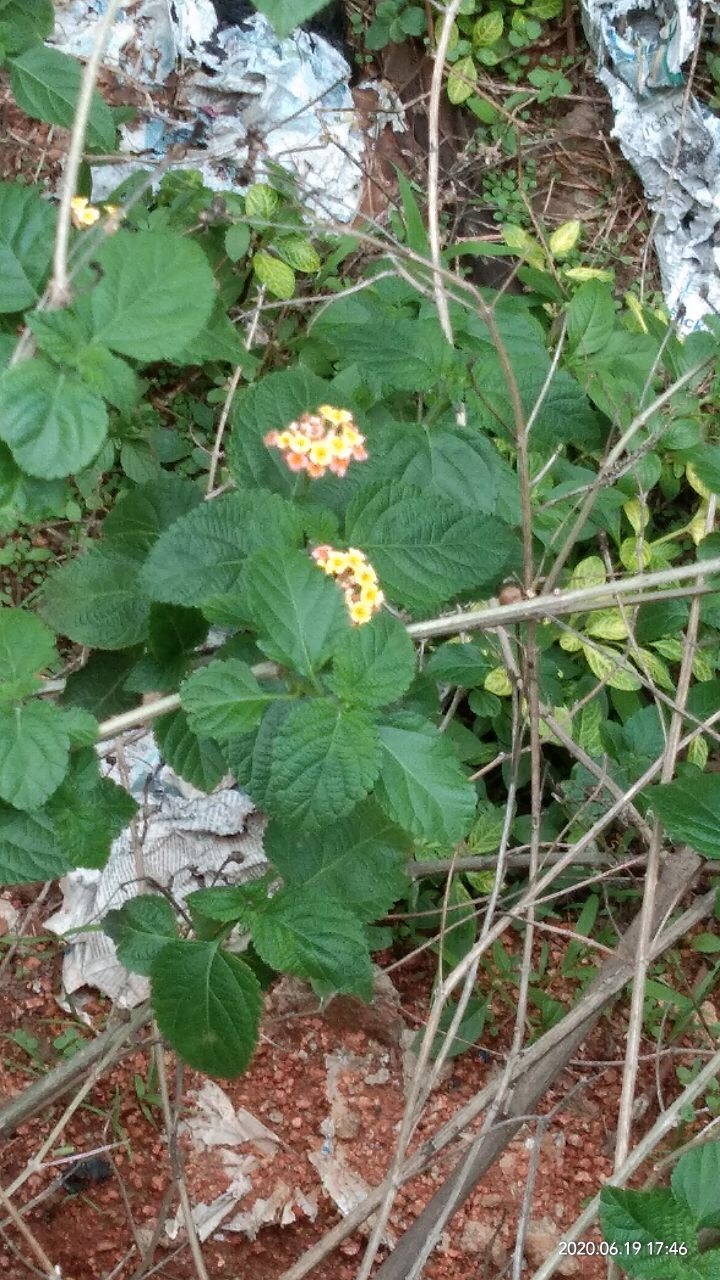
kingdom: Plantae
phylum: Tracheophyta
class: Magnoliopsida
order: Lamiales
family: Verbenaceae
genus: Lantana
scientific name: Lantana camara
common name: Lantana
